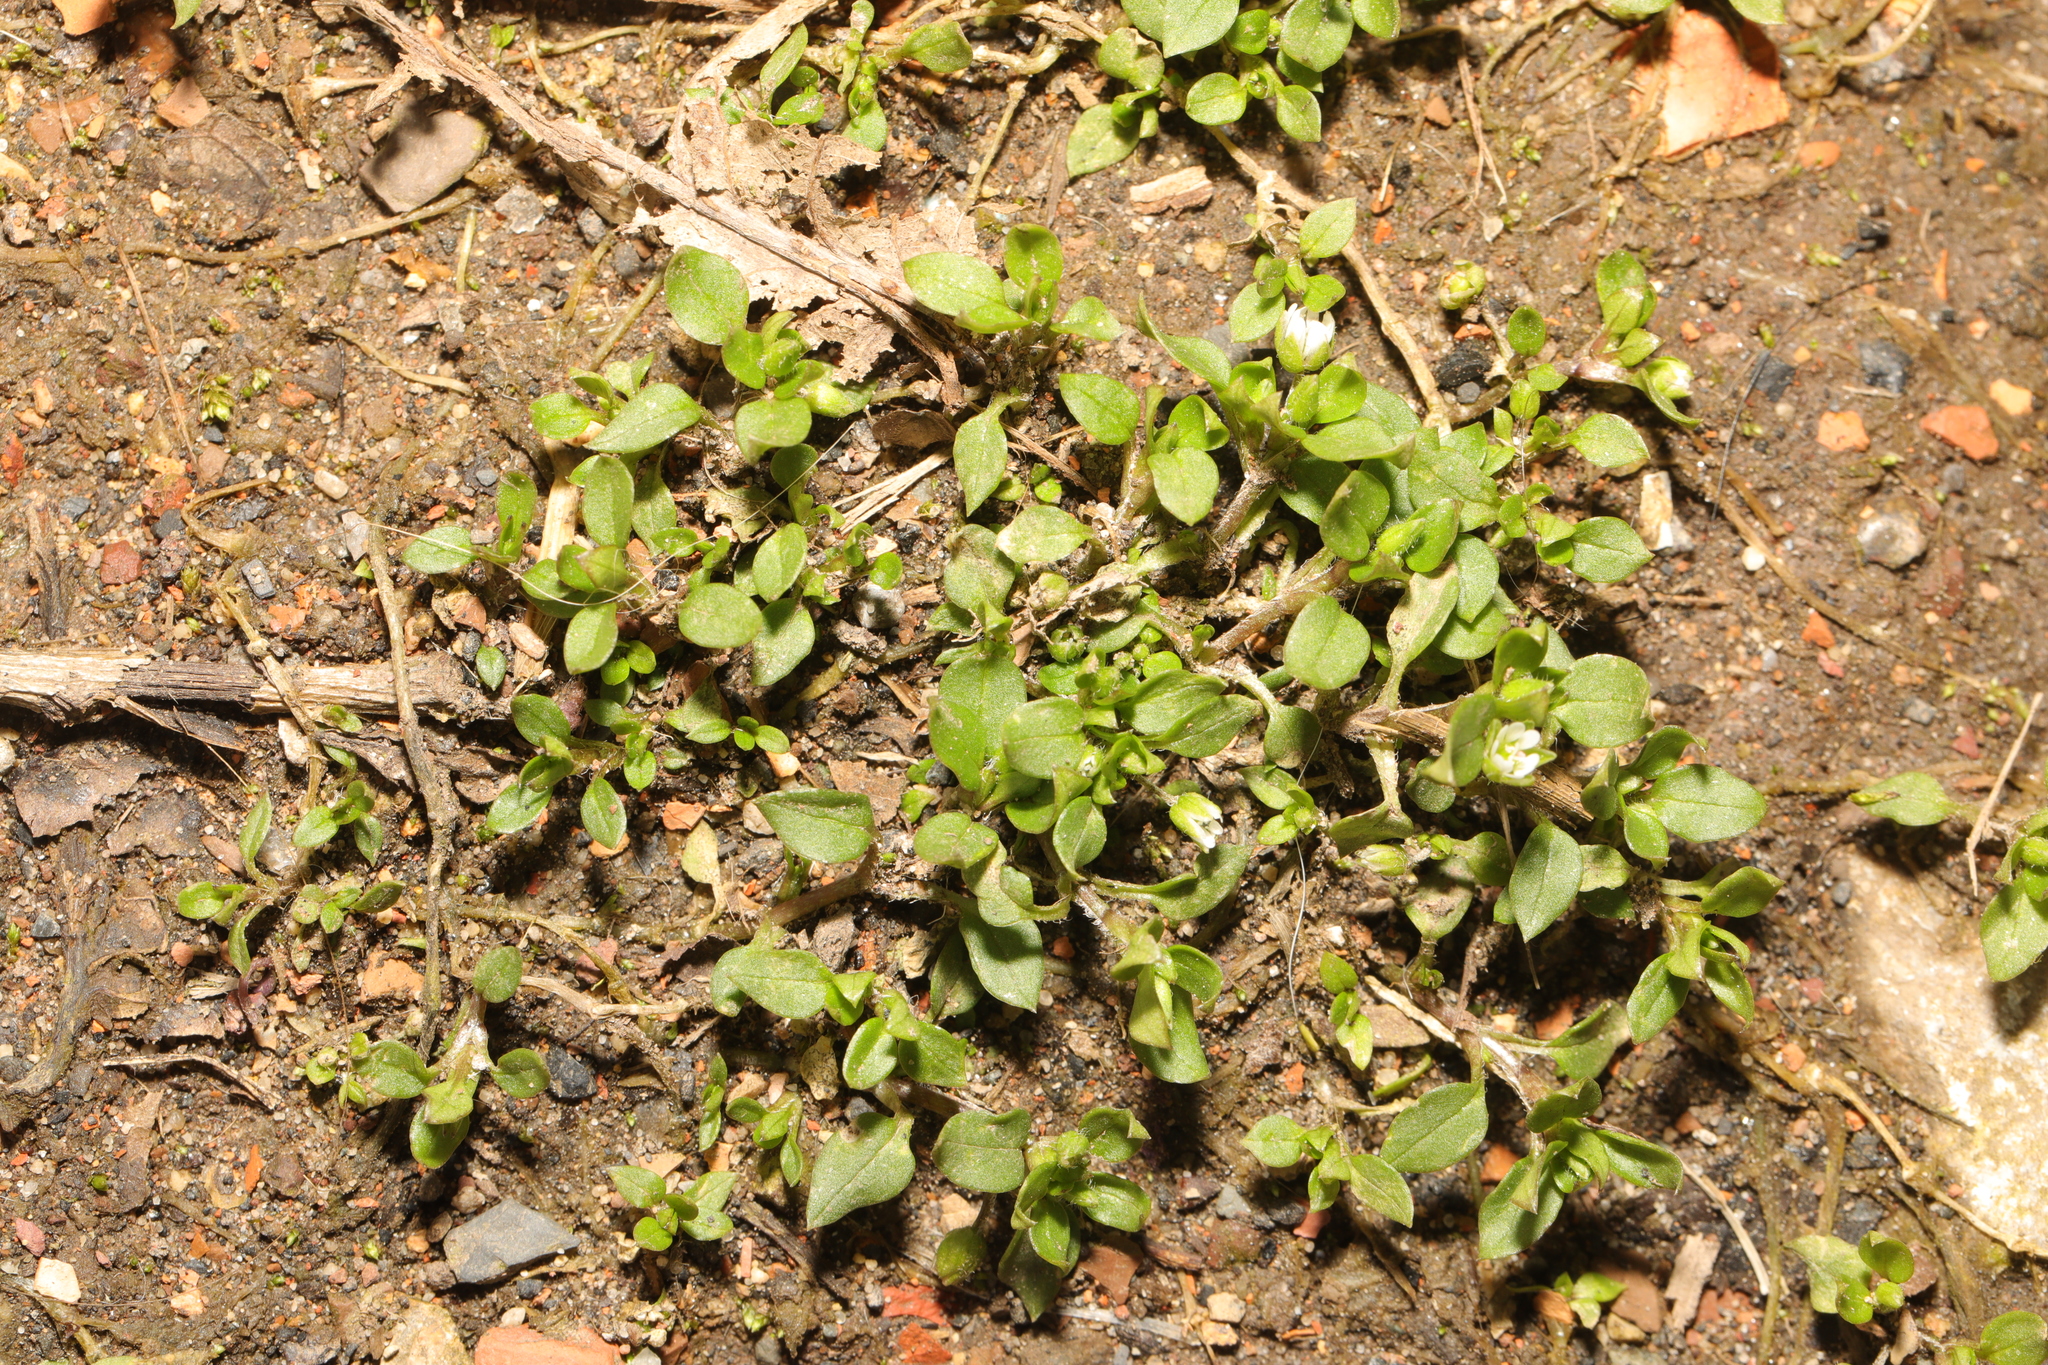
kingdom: Plantae
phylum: Tracheophyta
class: Magnoliopsida
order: Caryophyllales
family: Caryophyllaceae
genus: Stellaria
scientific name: Stellaria media
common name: Common chickweed
